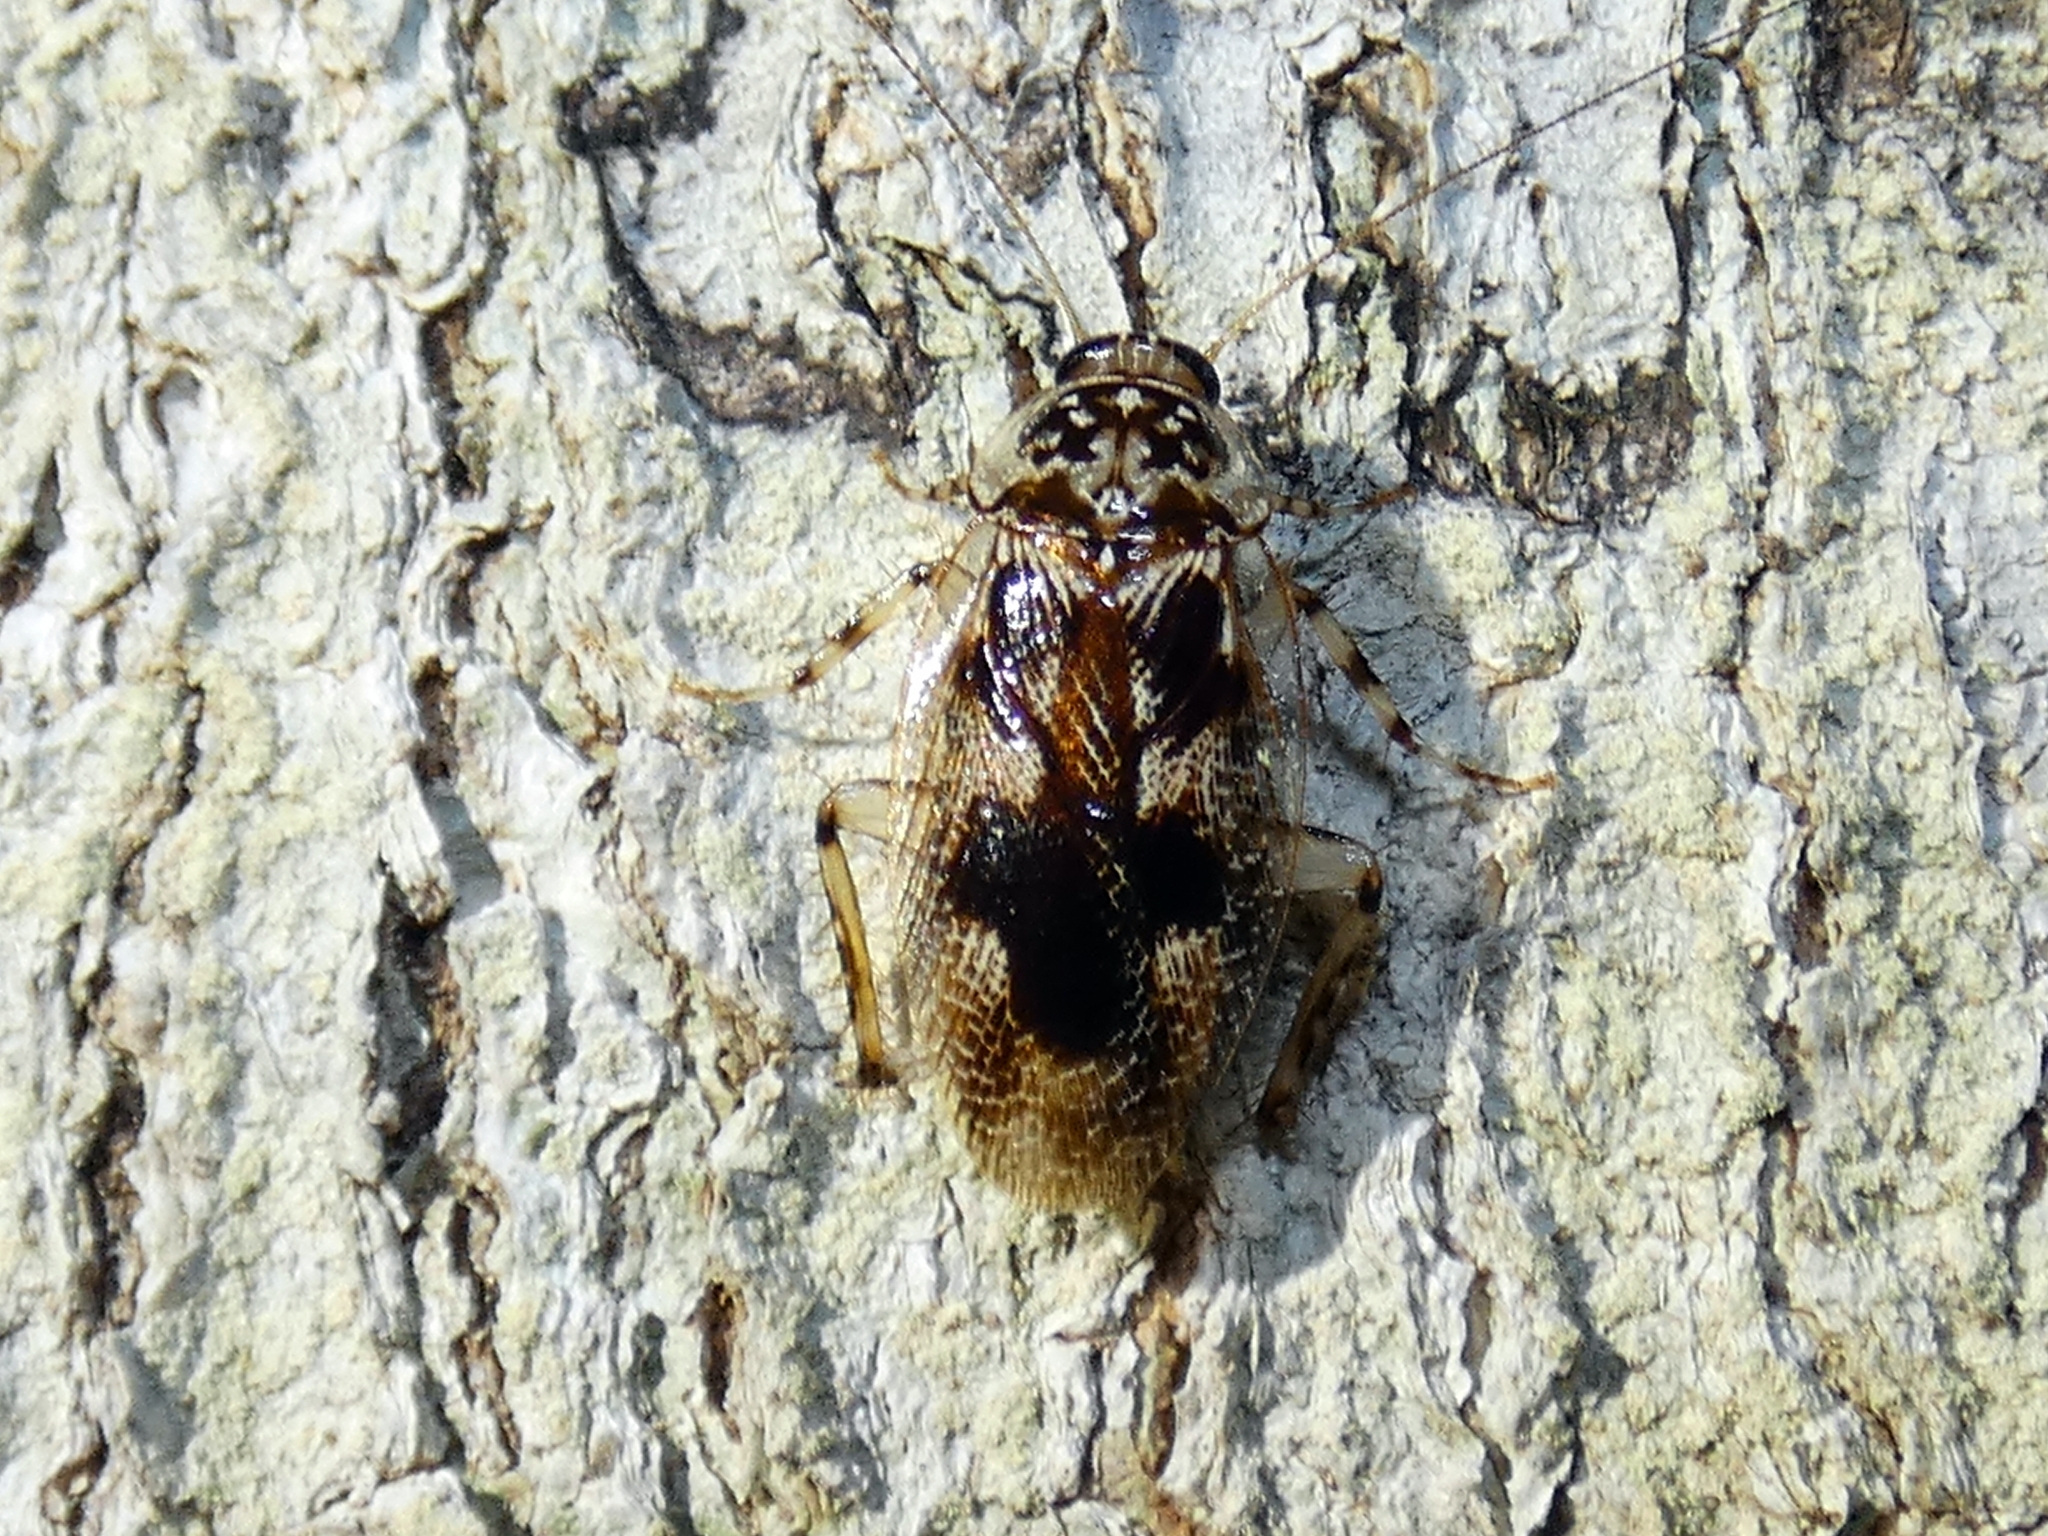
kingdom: Animalia
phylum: Arthropoda
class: Insecta
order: Blattodea
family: Ectobiidae
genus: Allacta
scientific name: Allacta australiensis
